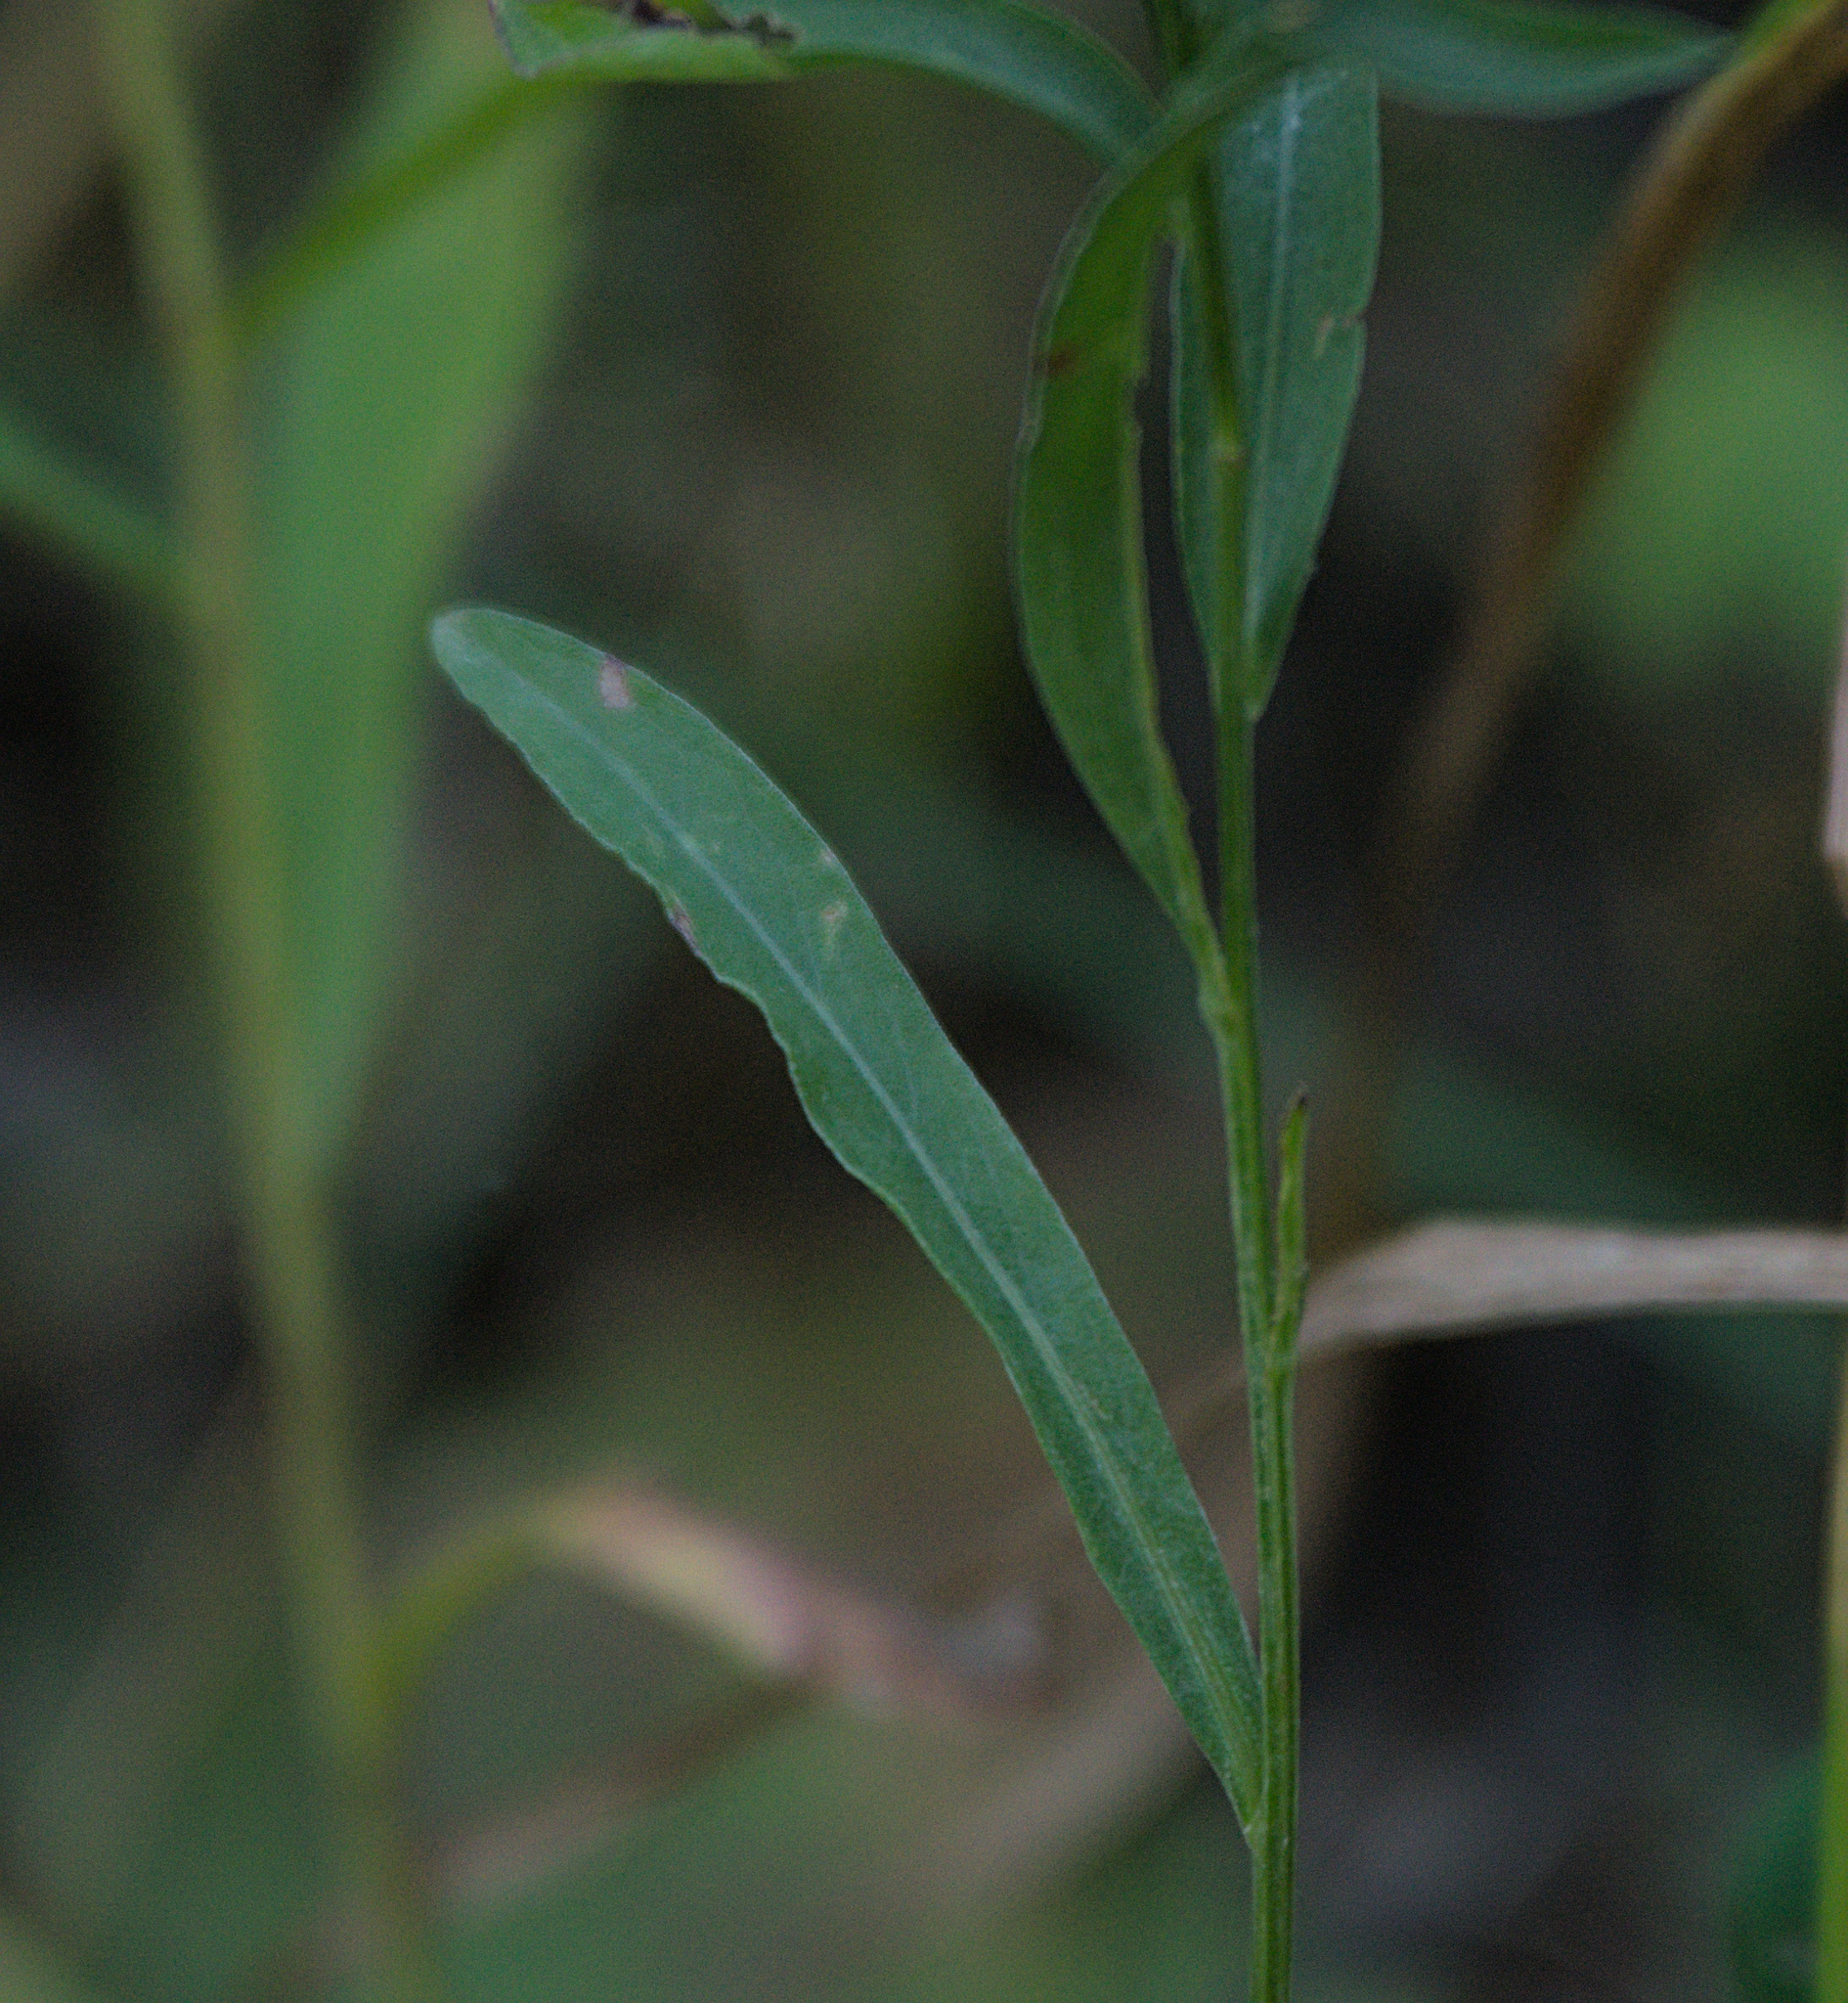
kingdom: Plantae
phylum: Tracheophyta
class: Magnoliopsida
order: Asterales
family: Asteraceae
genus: Centaurea
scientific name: Centaurea jacea
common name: Brown knapweed
